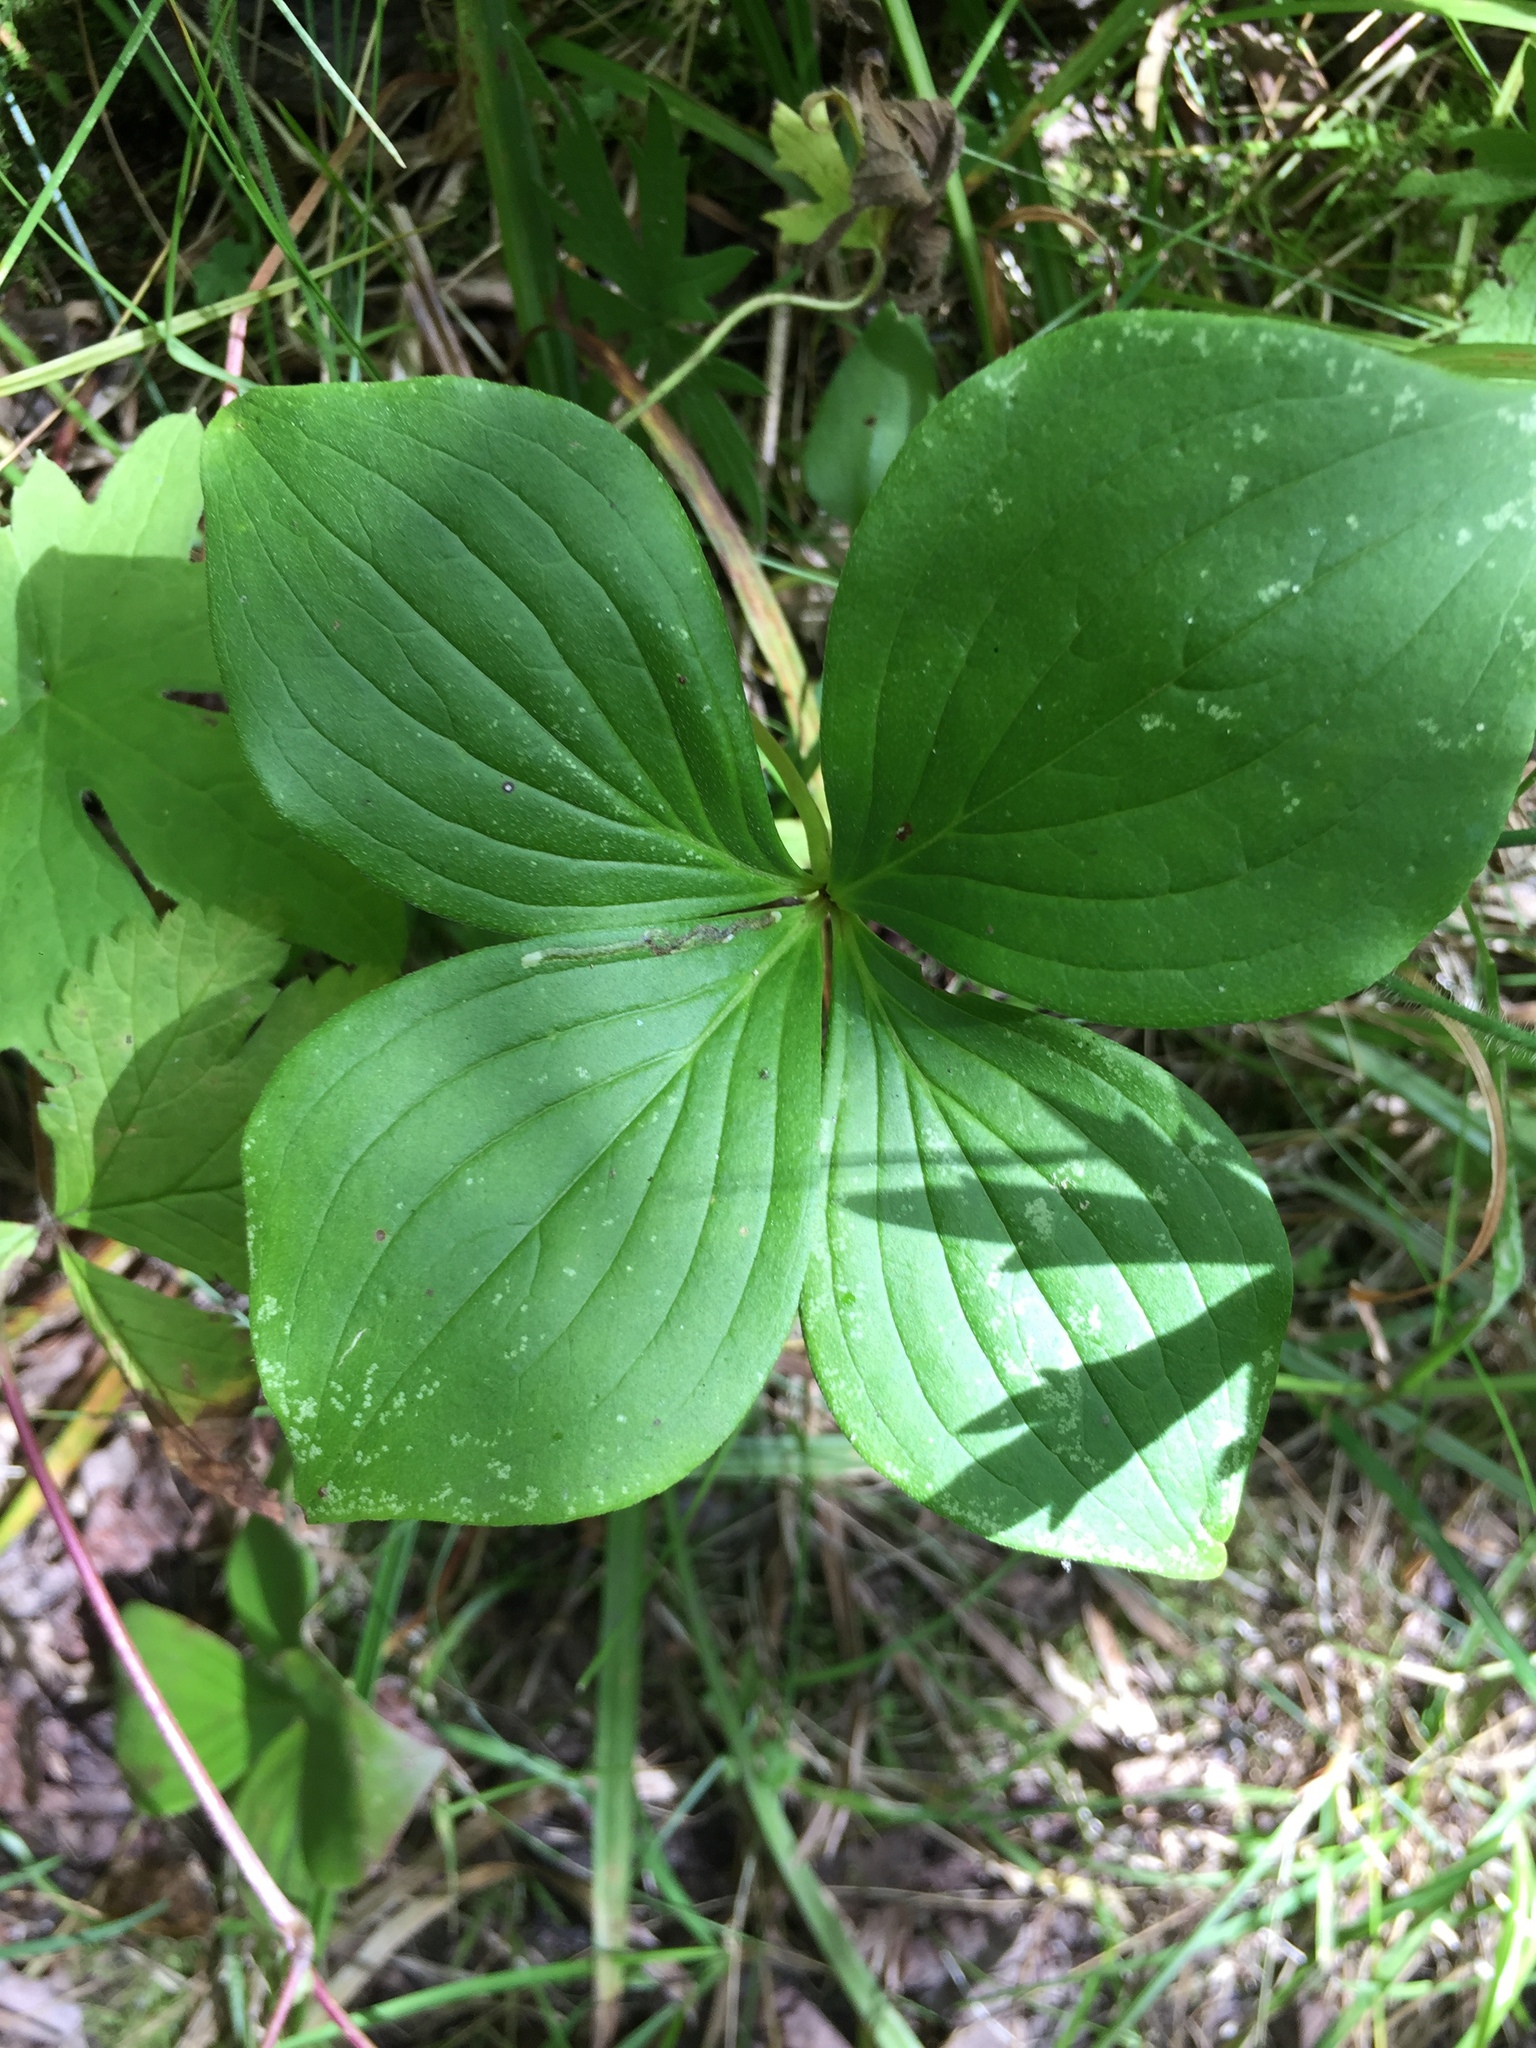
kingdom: Plantae
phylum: Tracheophyta
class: Magnoliopsida
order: Cornales
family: Cornaceae
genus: Cornus
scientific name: Cornus canadensis
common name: Creeping dogwood
